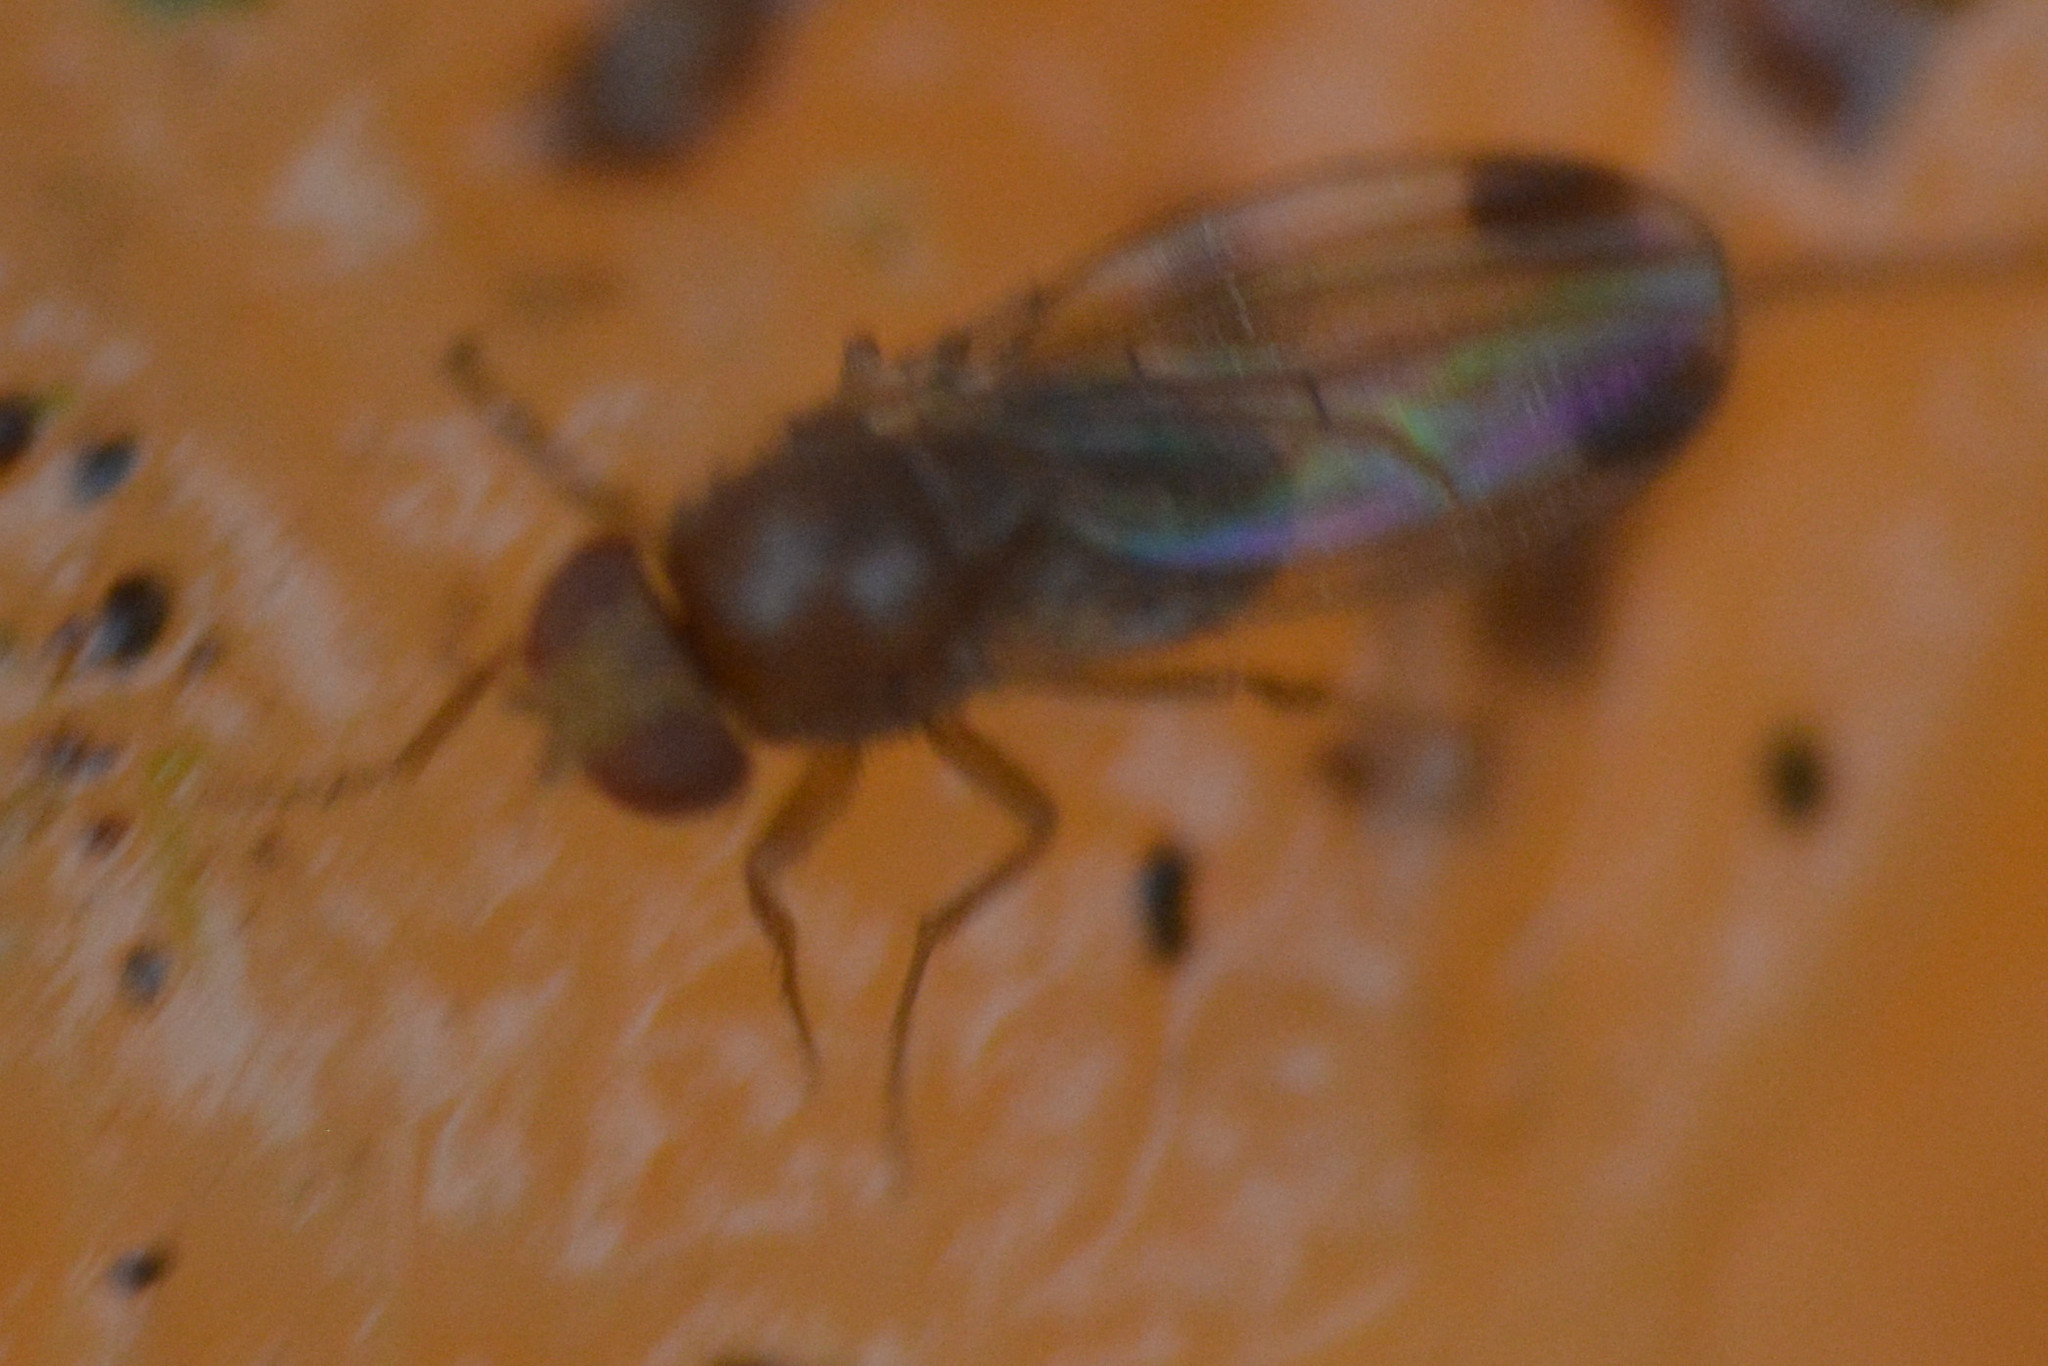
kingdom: Animalia
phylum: Arthropoda
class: Insecta
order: Diptera
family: Drosophilidae
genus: Drosophila
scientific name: Drosophila suzukii
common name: Spotted-wing drosophila
